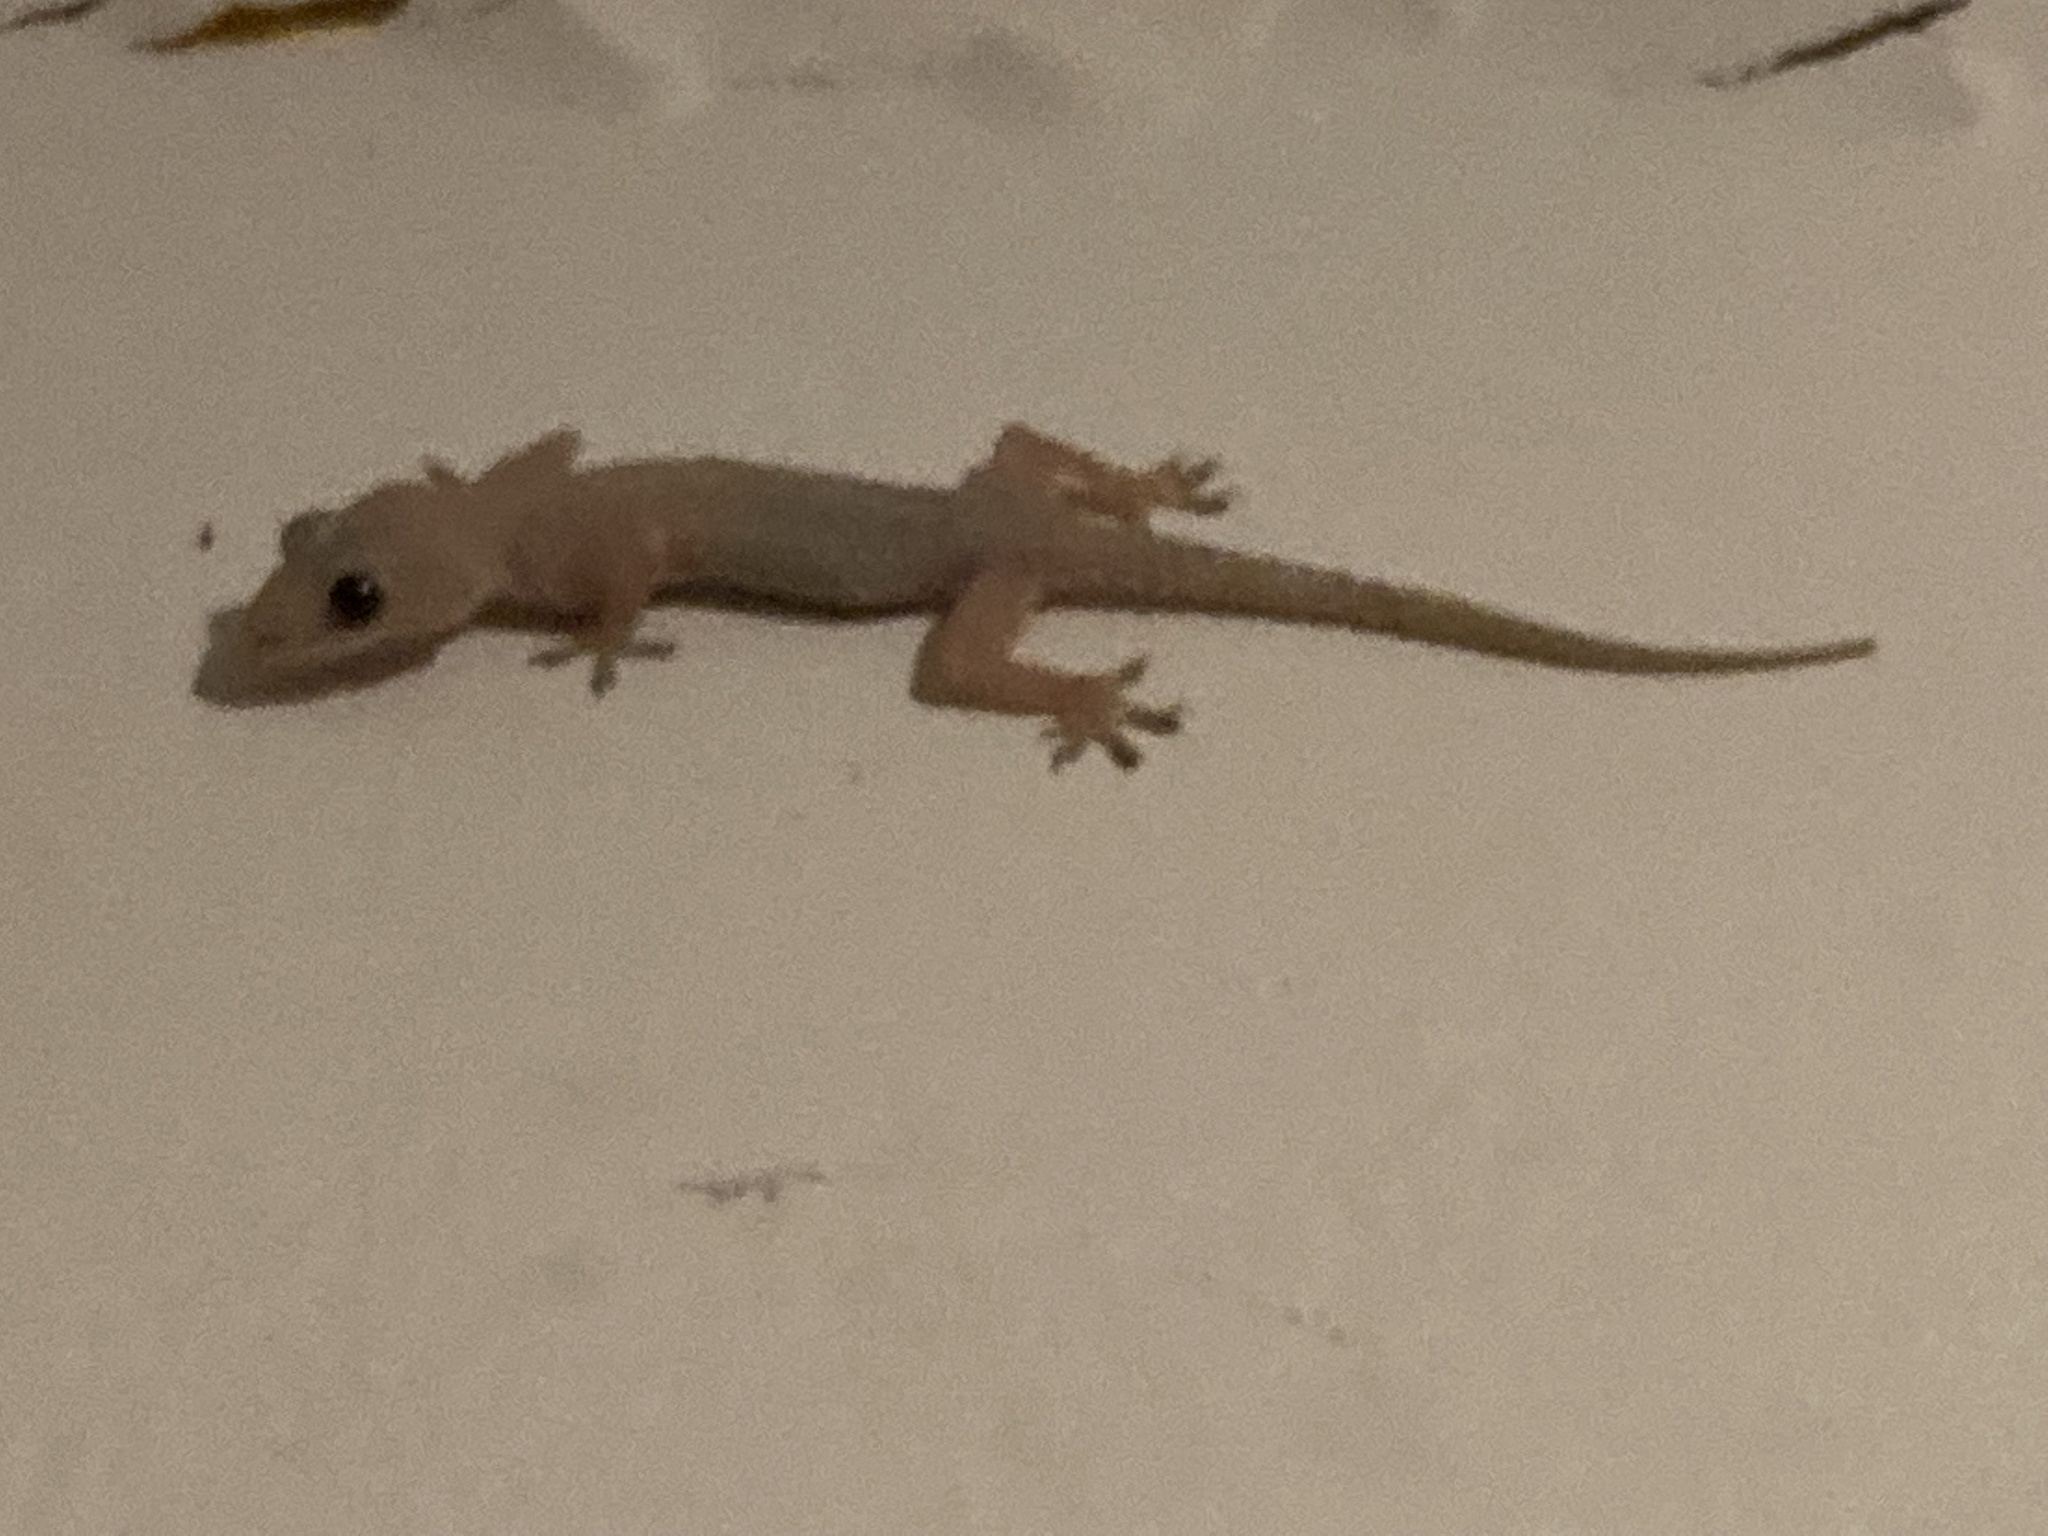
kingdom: Animalia
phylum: Chordata
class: Squamata
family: Gekkonidae
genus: Hemidactylus
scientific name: Hemidactylus mabouia
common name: House gecko
